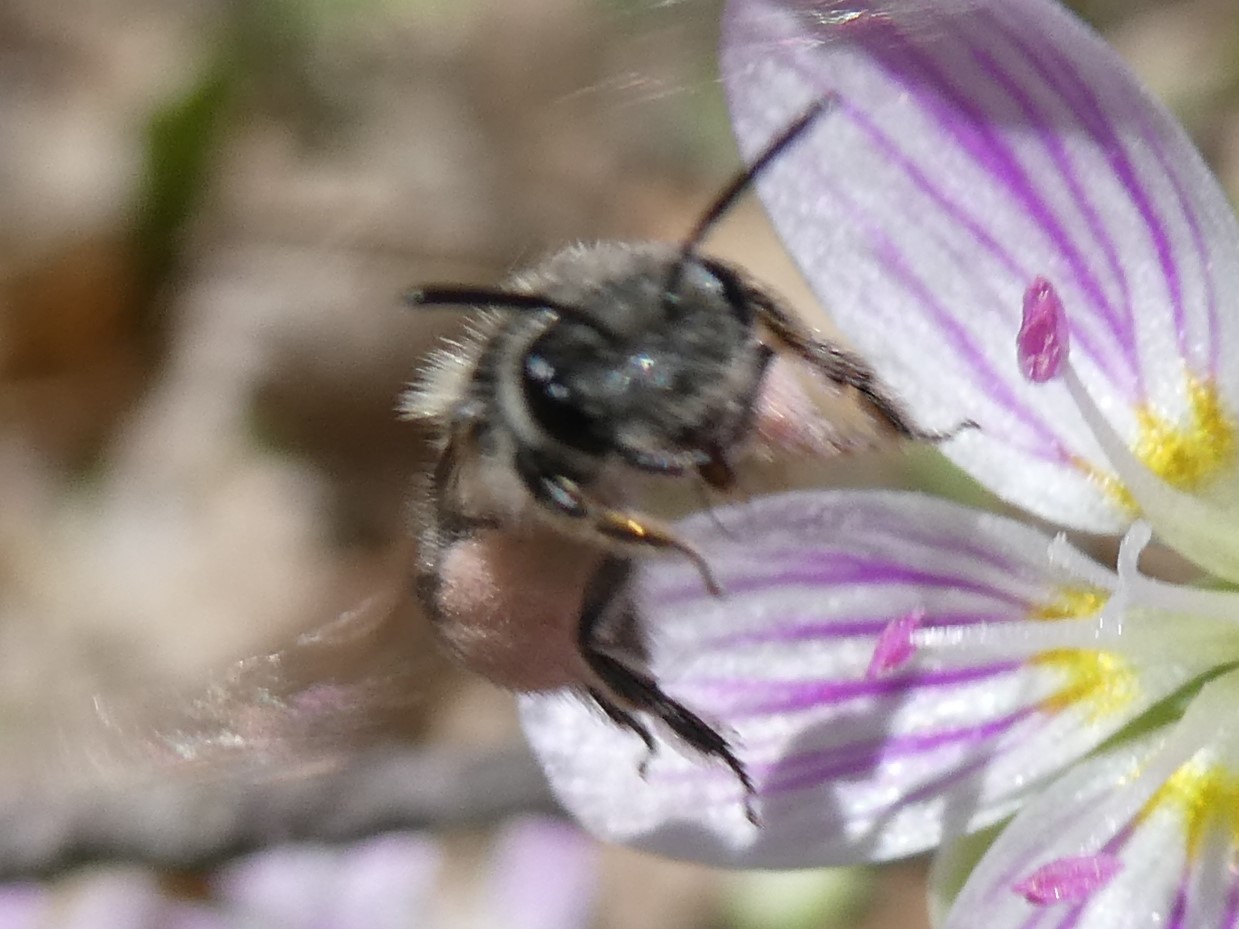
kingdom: Animalia
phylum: Arthropoda
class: Insecta
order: Hymenoptera
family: Andrenidae
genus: Andrena
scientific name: Andrena erigeniae
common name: Spring beauty miner
